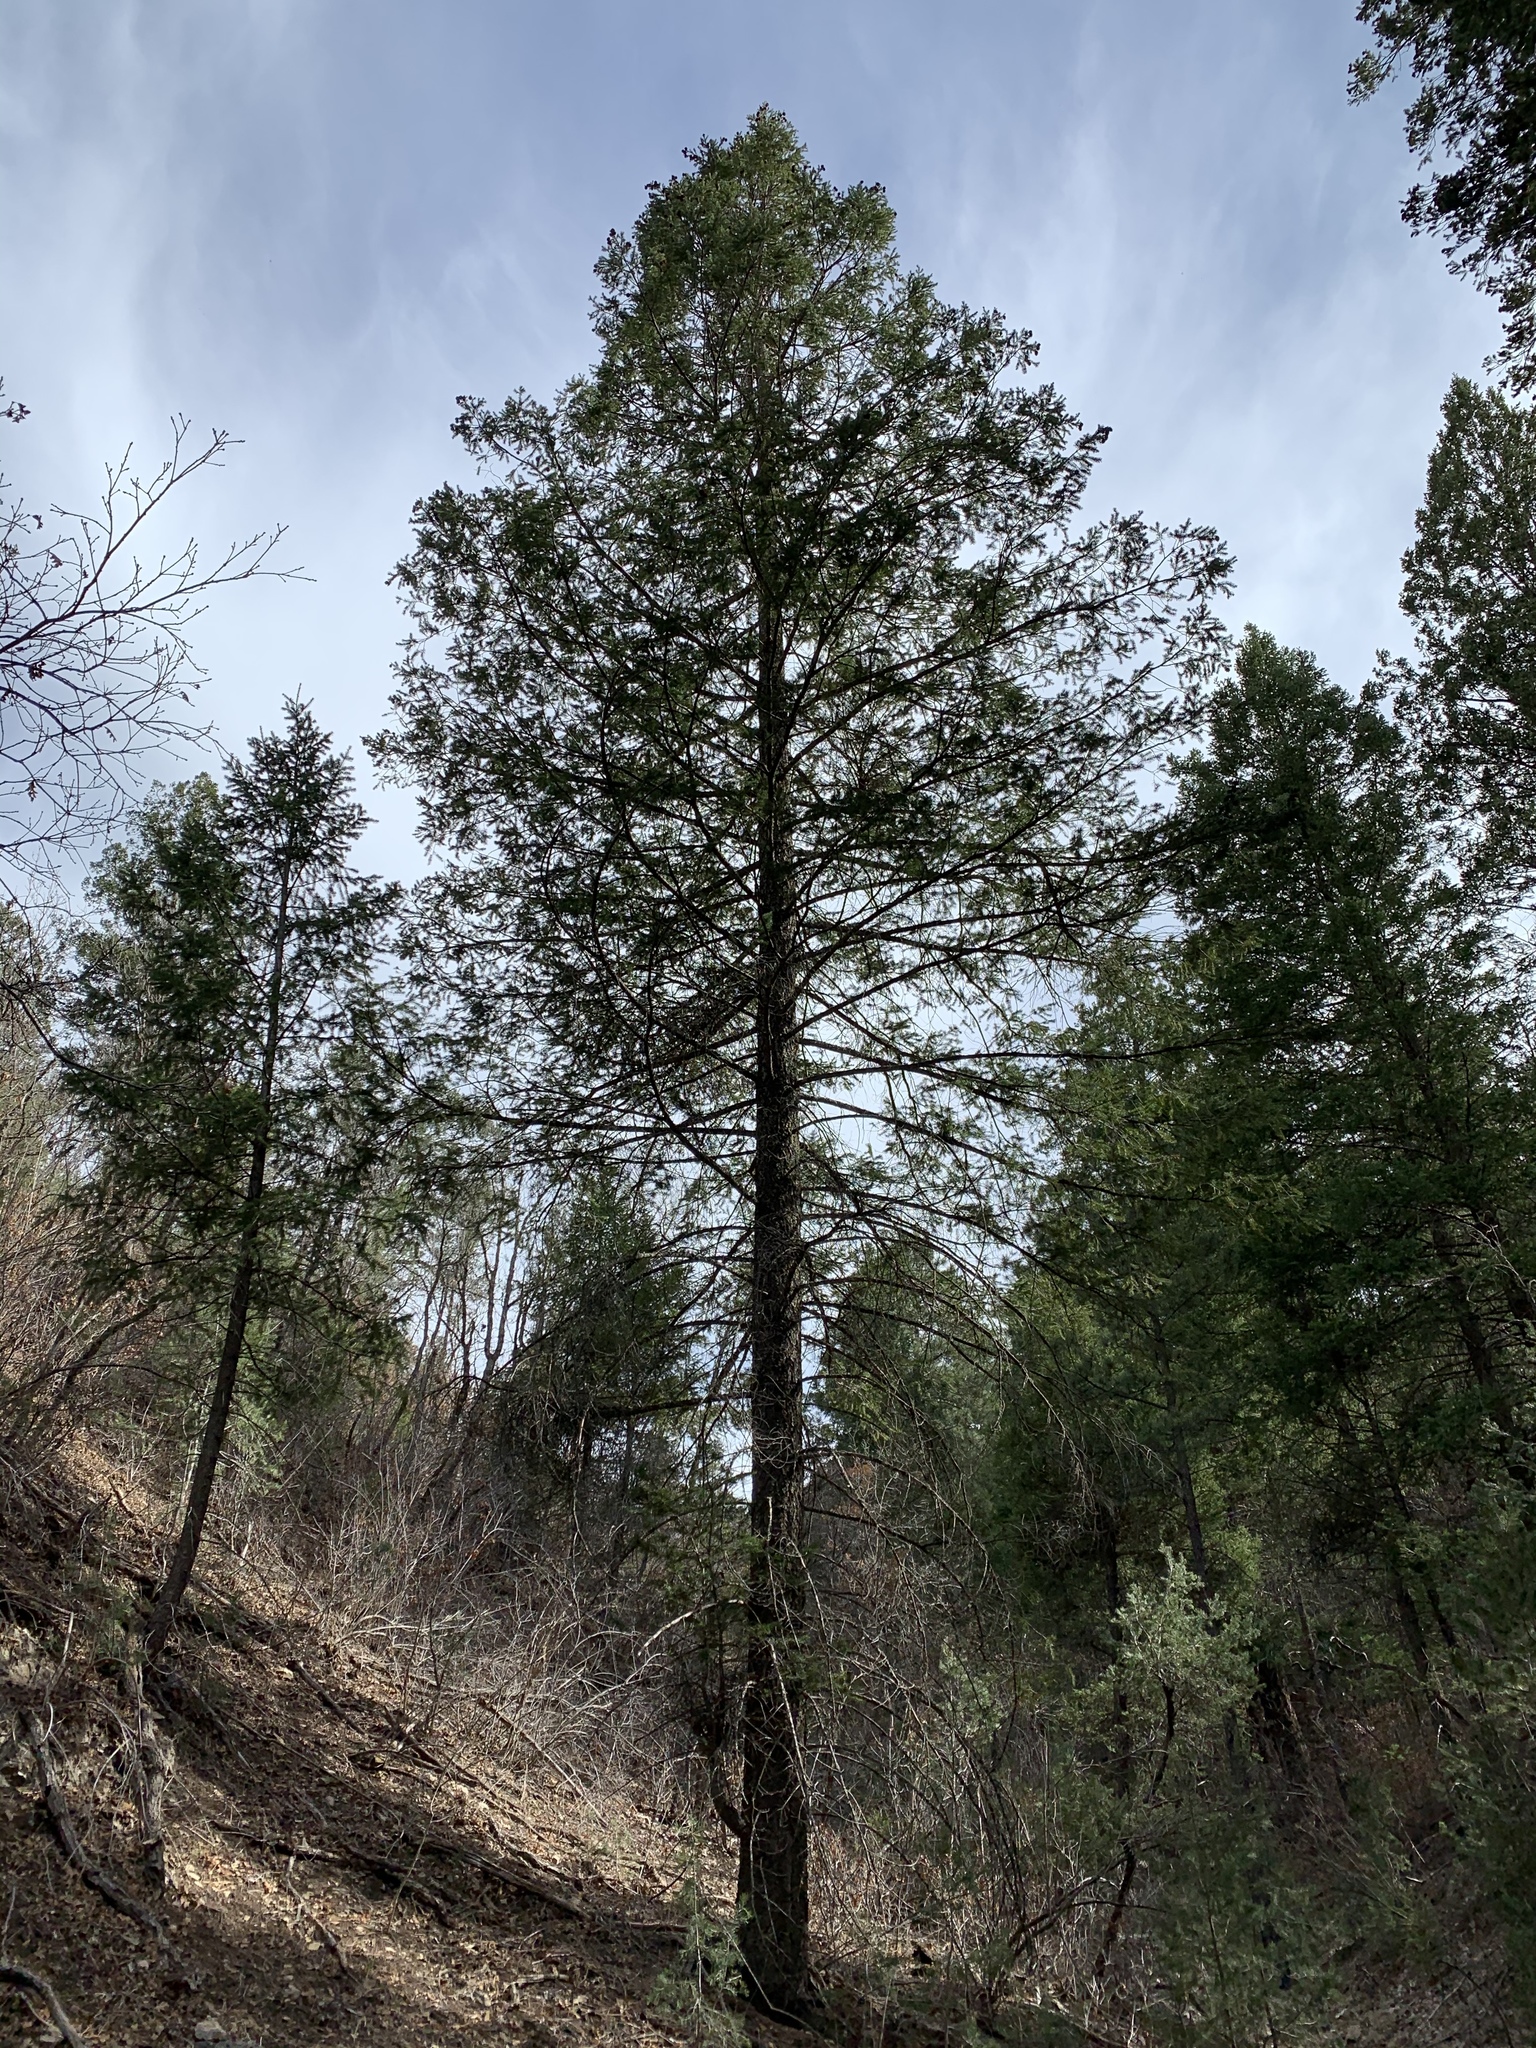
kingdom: Plantae
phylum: Tracheophyta
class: Pinopsida
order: Pinales
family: Pinaceae
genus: Pinus
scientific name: Pinus ponderosa
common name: Western yellow-pine
